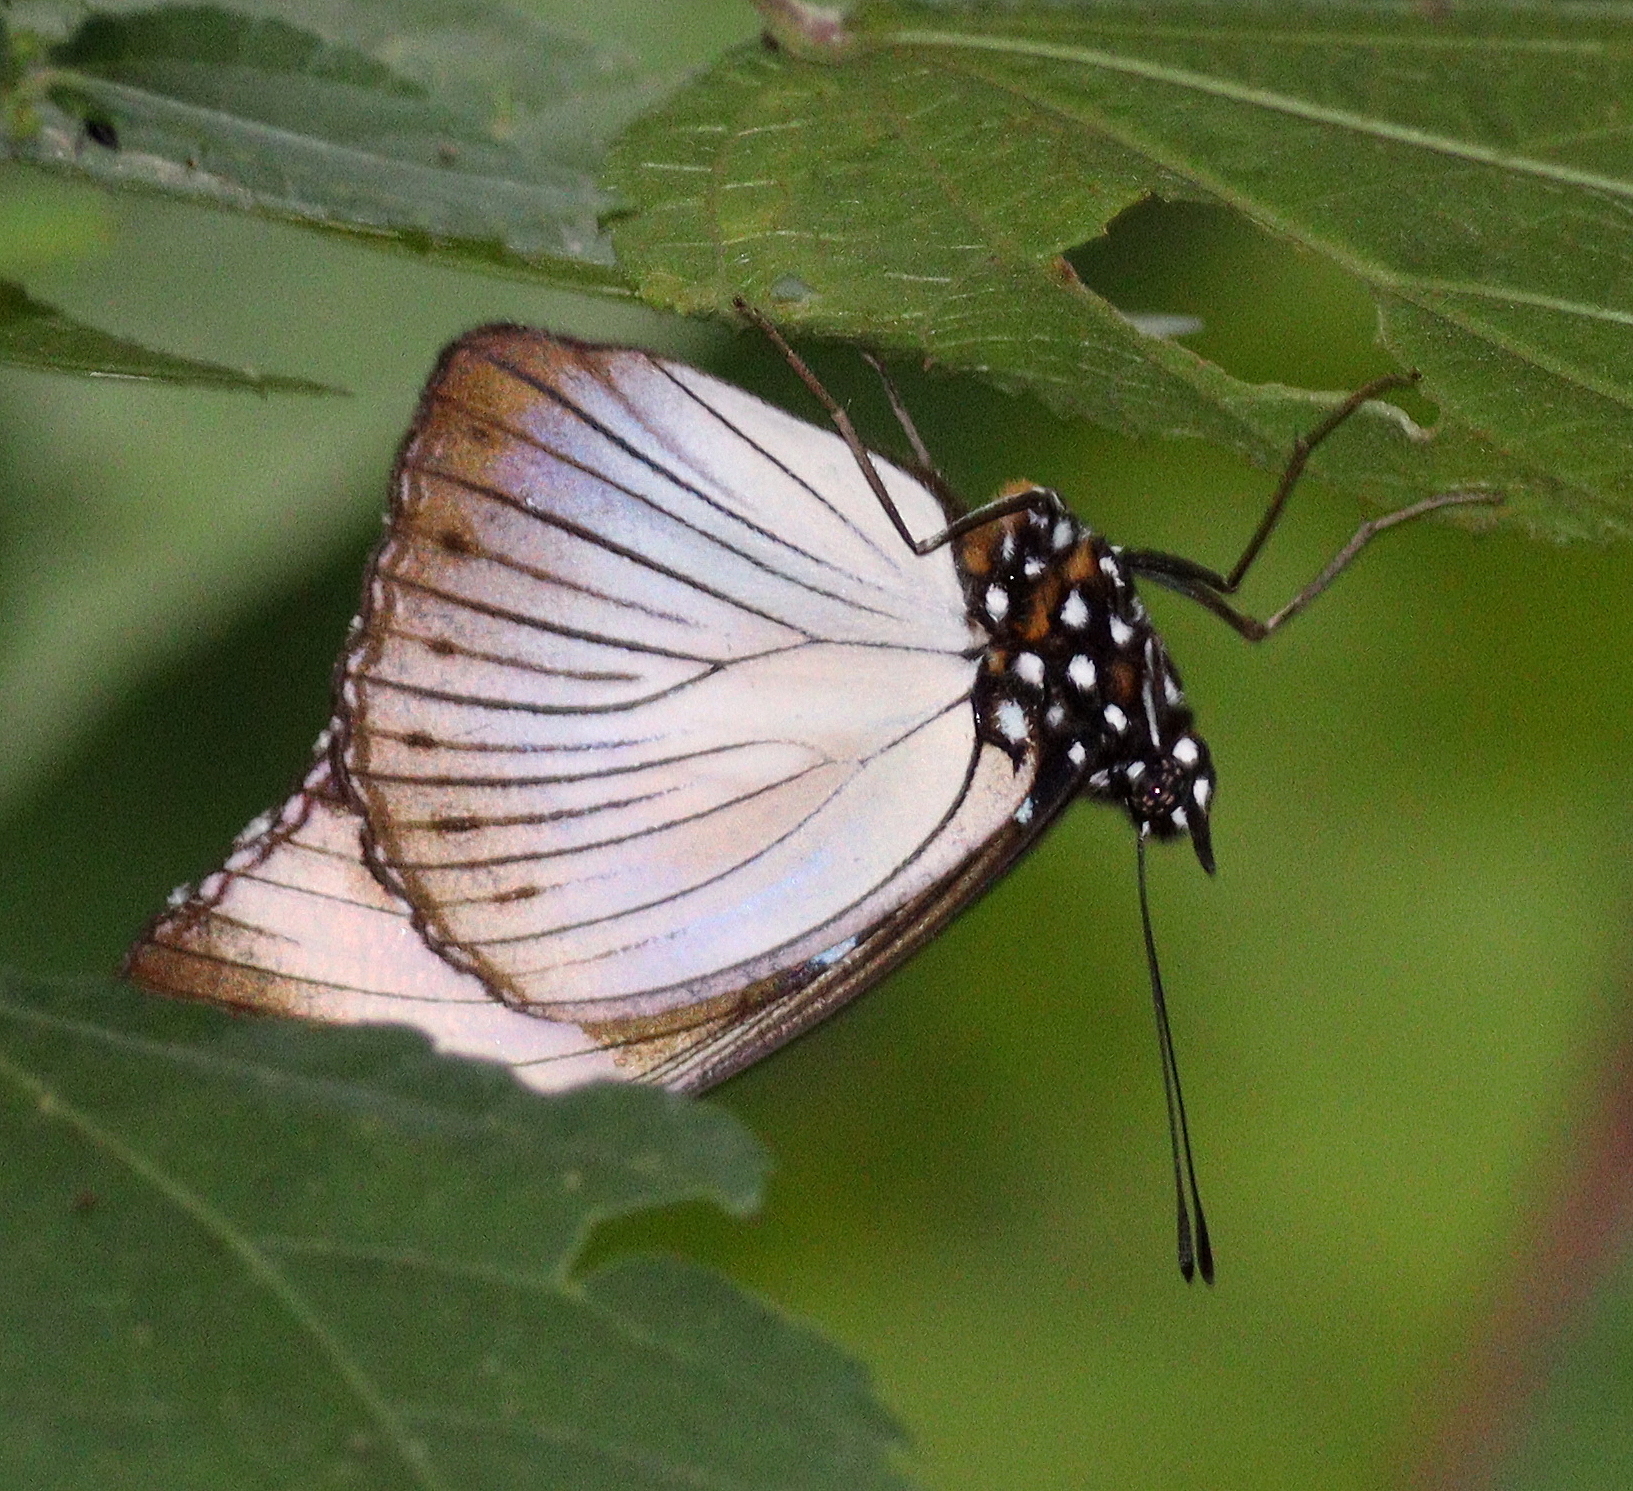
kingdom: Animalia
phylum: Arthropoda
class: Insecta
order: Lepidoptera
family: Nymphalidae
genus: Hypolimnas
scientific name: Hypolimnas dubius
